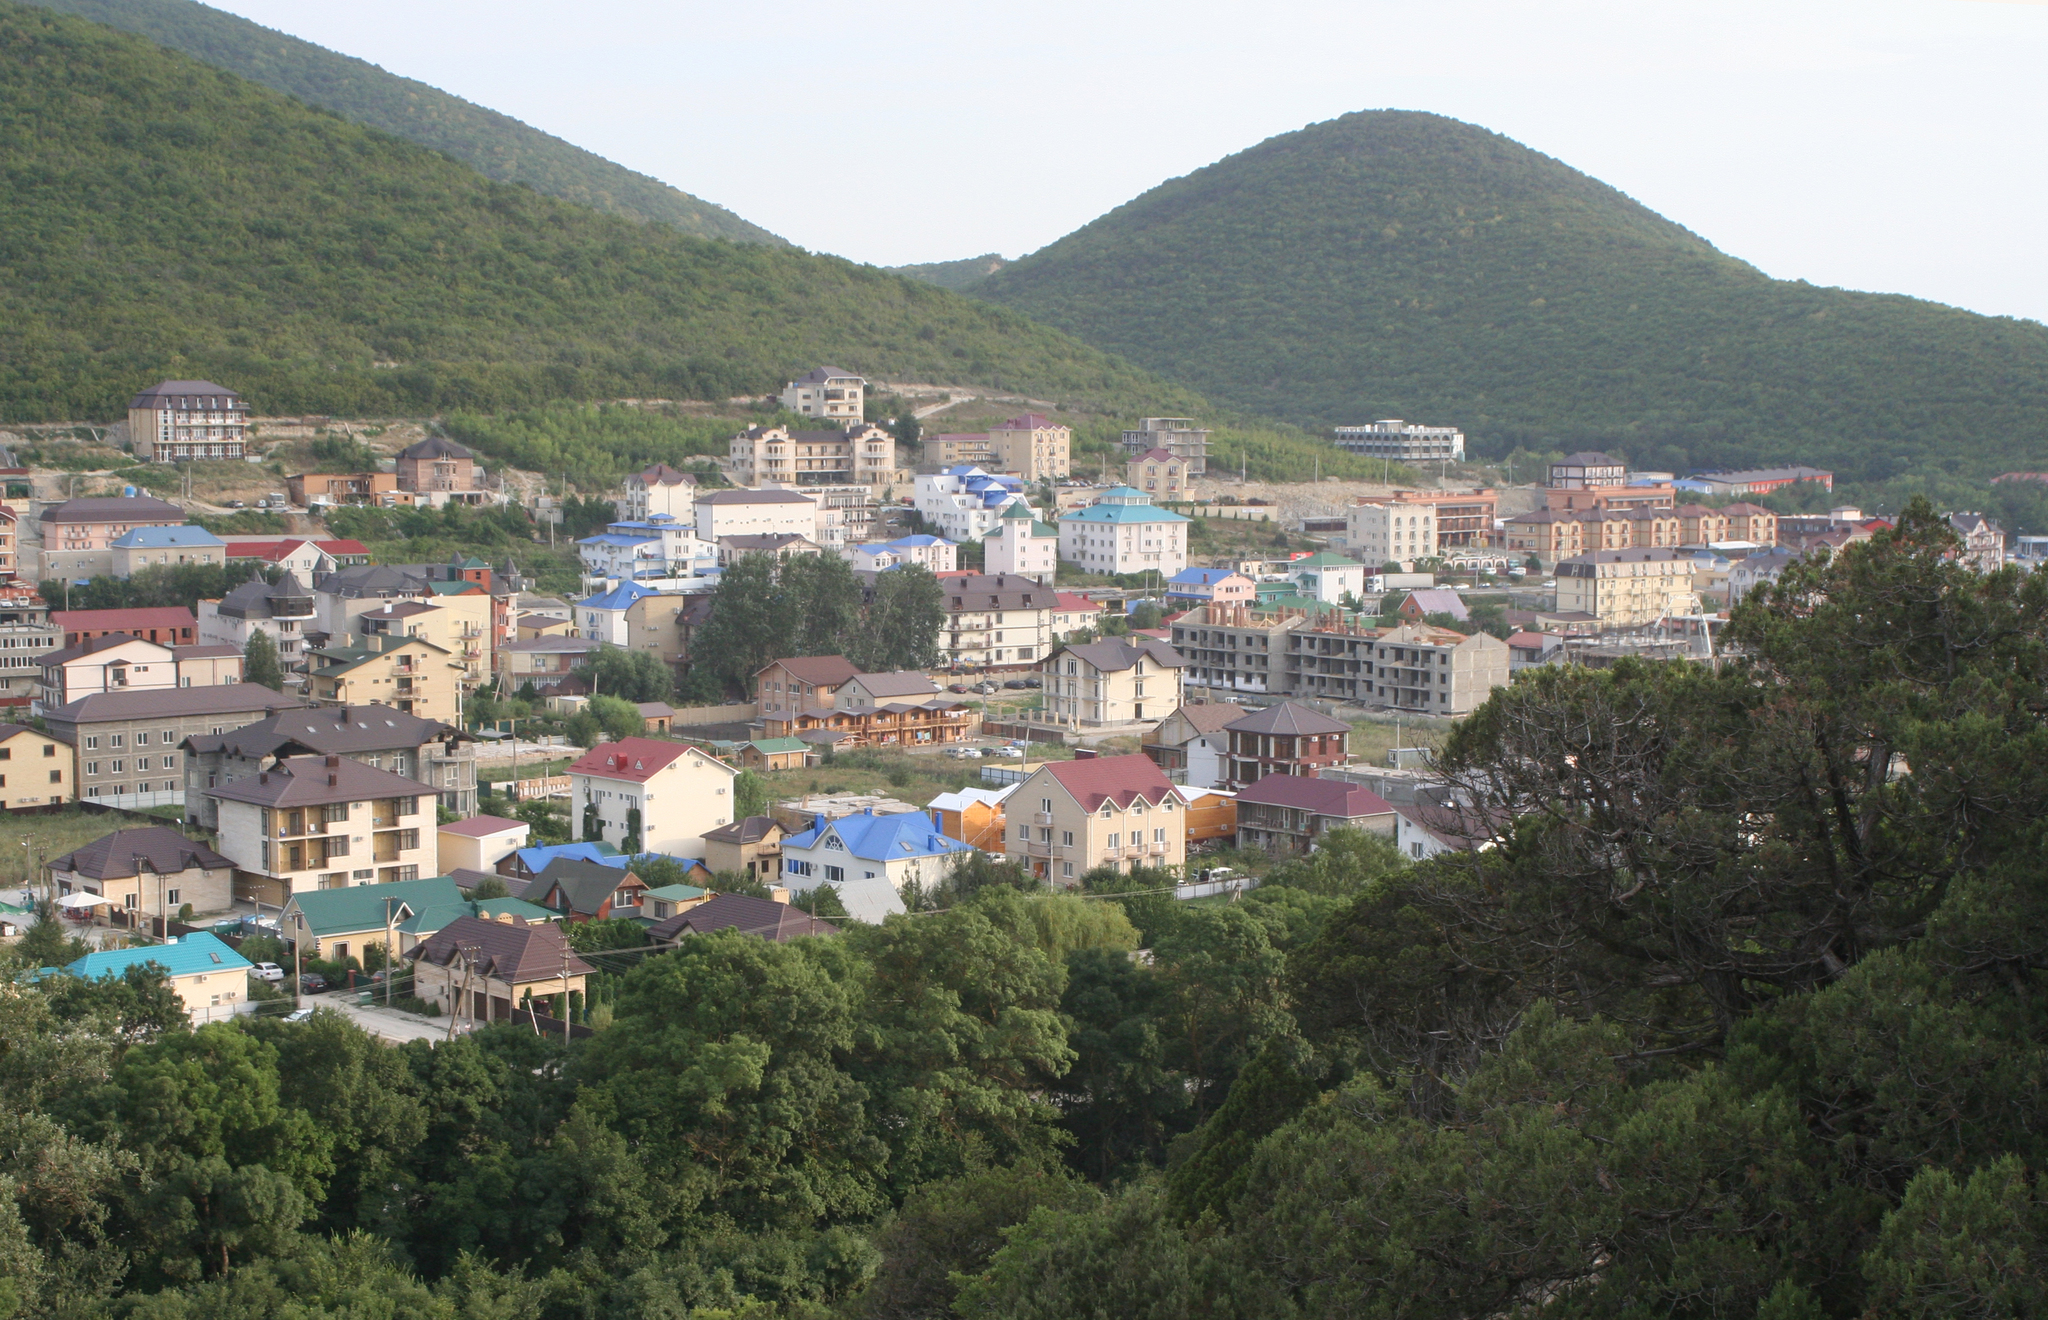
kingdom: Plantae
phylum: Tracheophyta
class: Pinopsida
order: Pinales
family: Cupressaceae
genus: Juniperus
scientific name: Juniperus excelsa
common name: Crimean juniper
